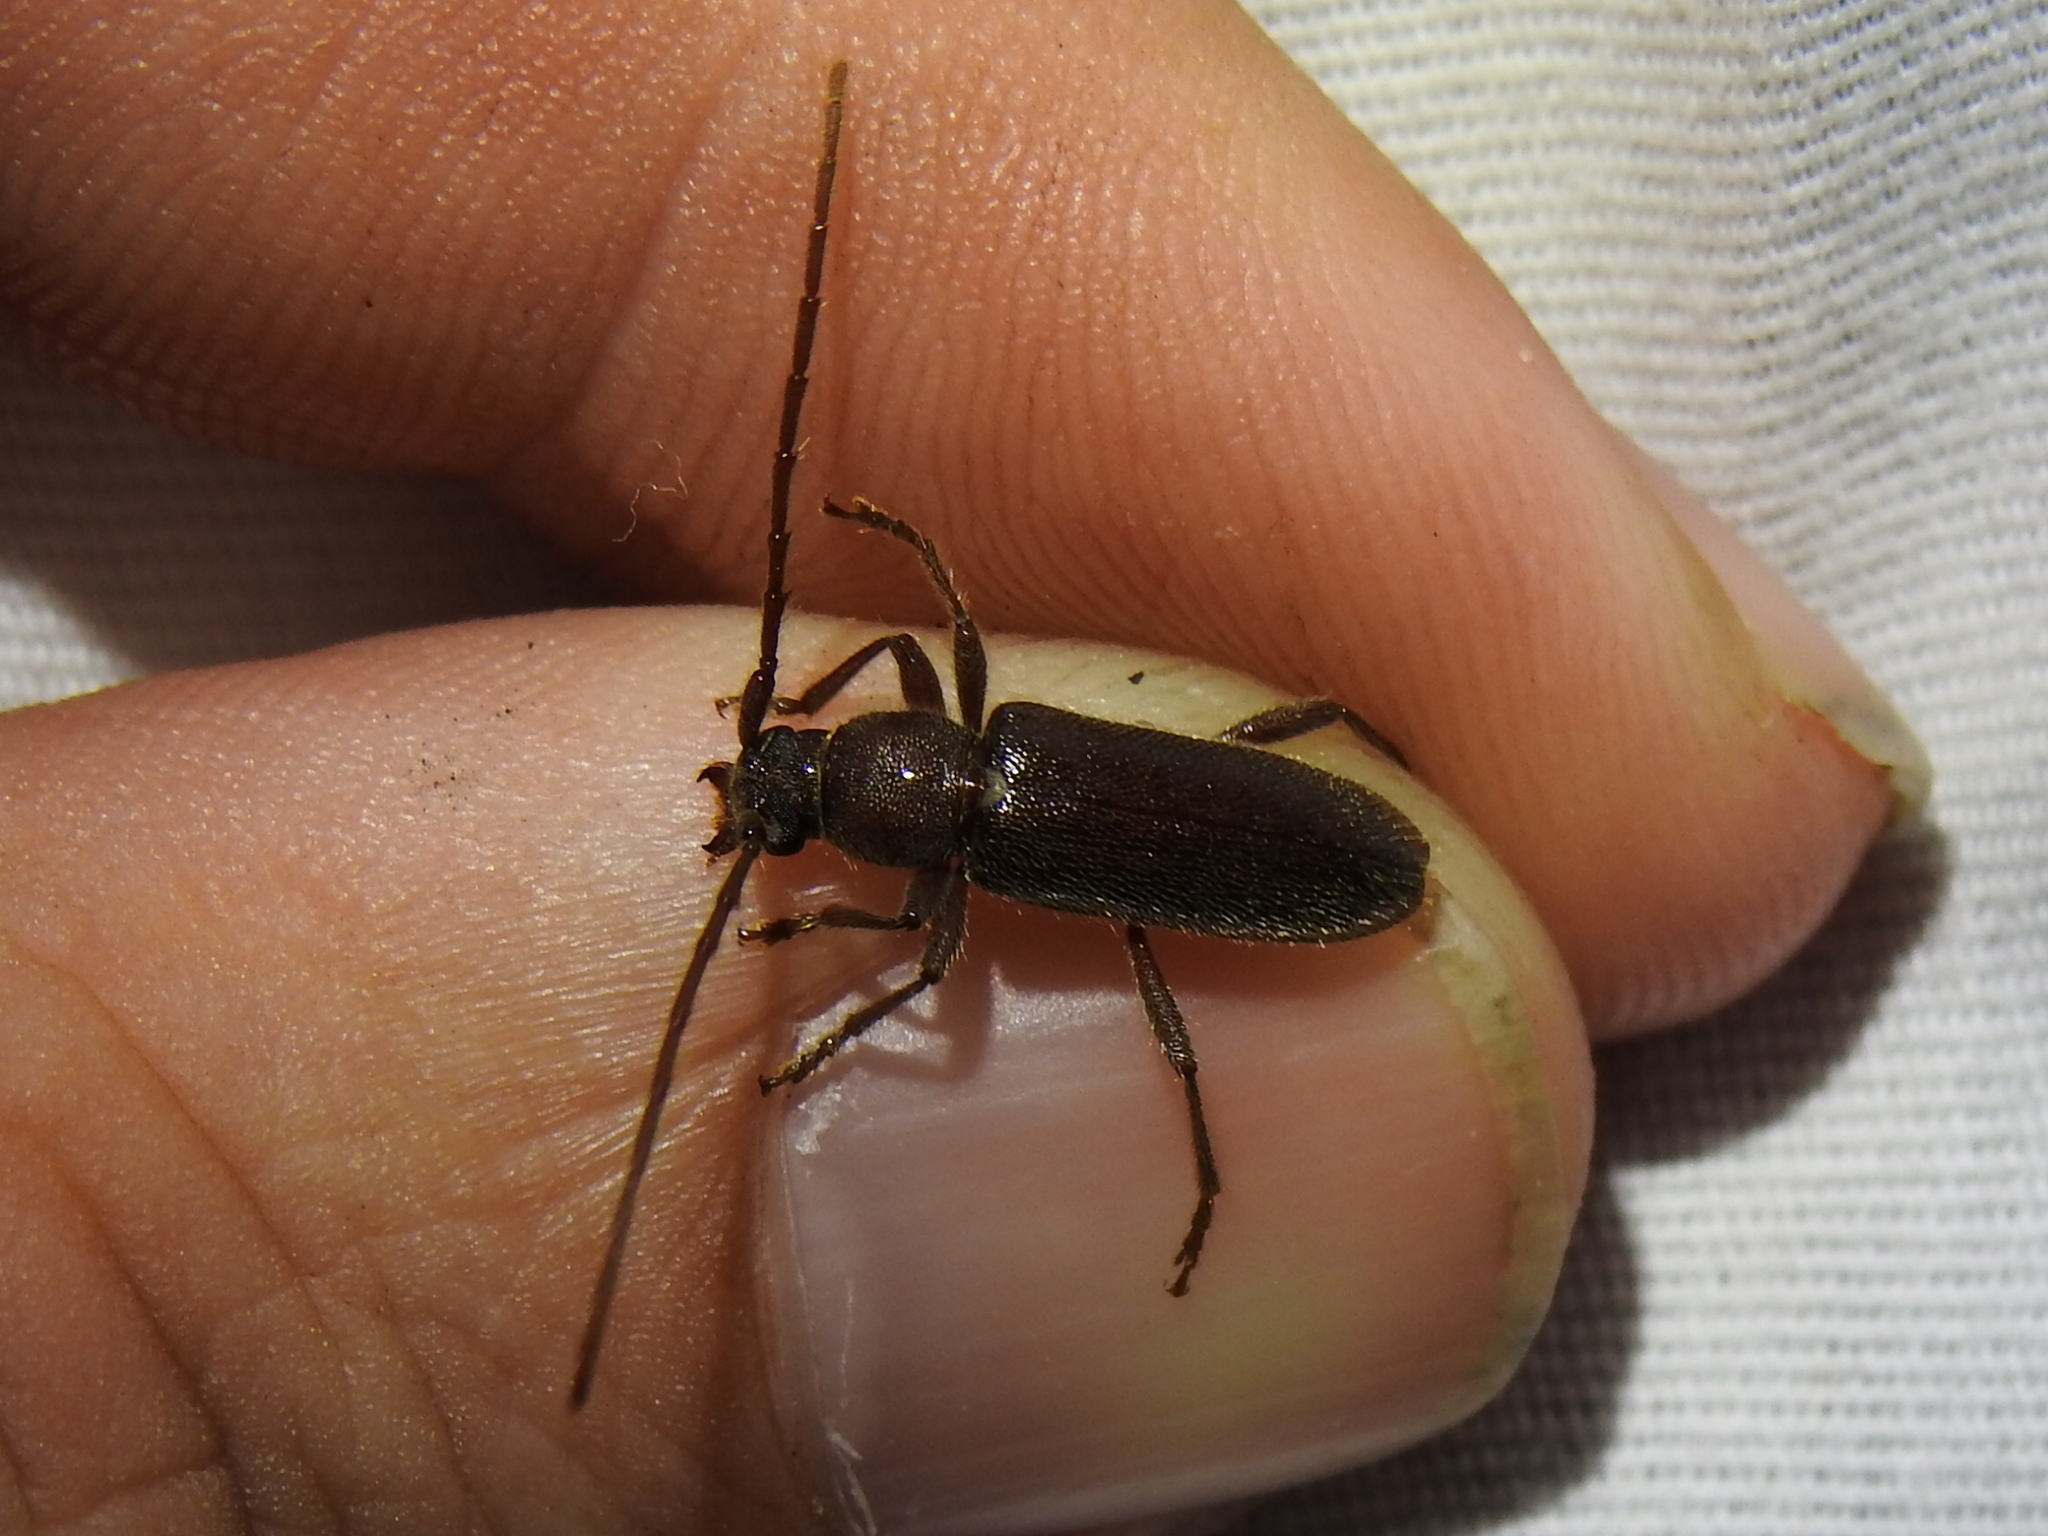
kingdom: Animalia
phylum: Arthropoda
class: Insecta
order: Coleoptera
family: Cerambycidae
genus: Anelaphus
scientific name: Anelaphus moestus
